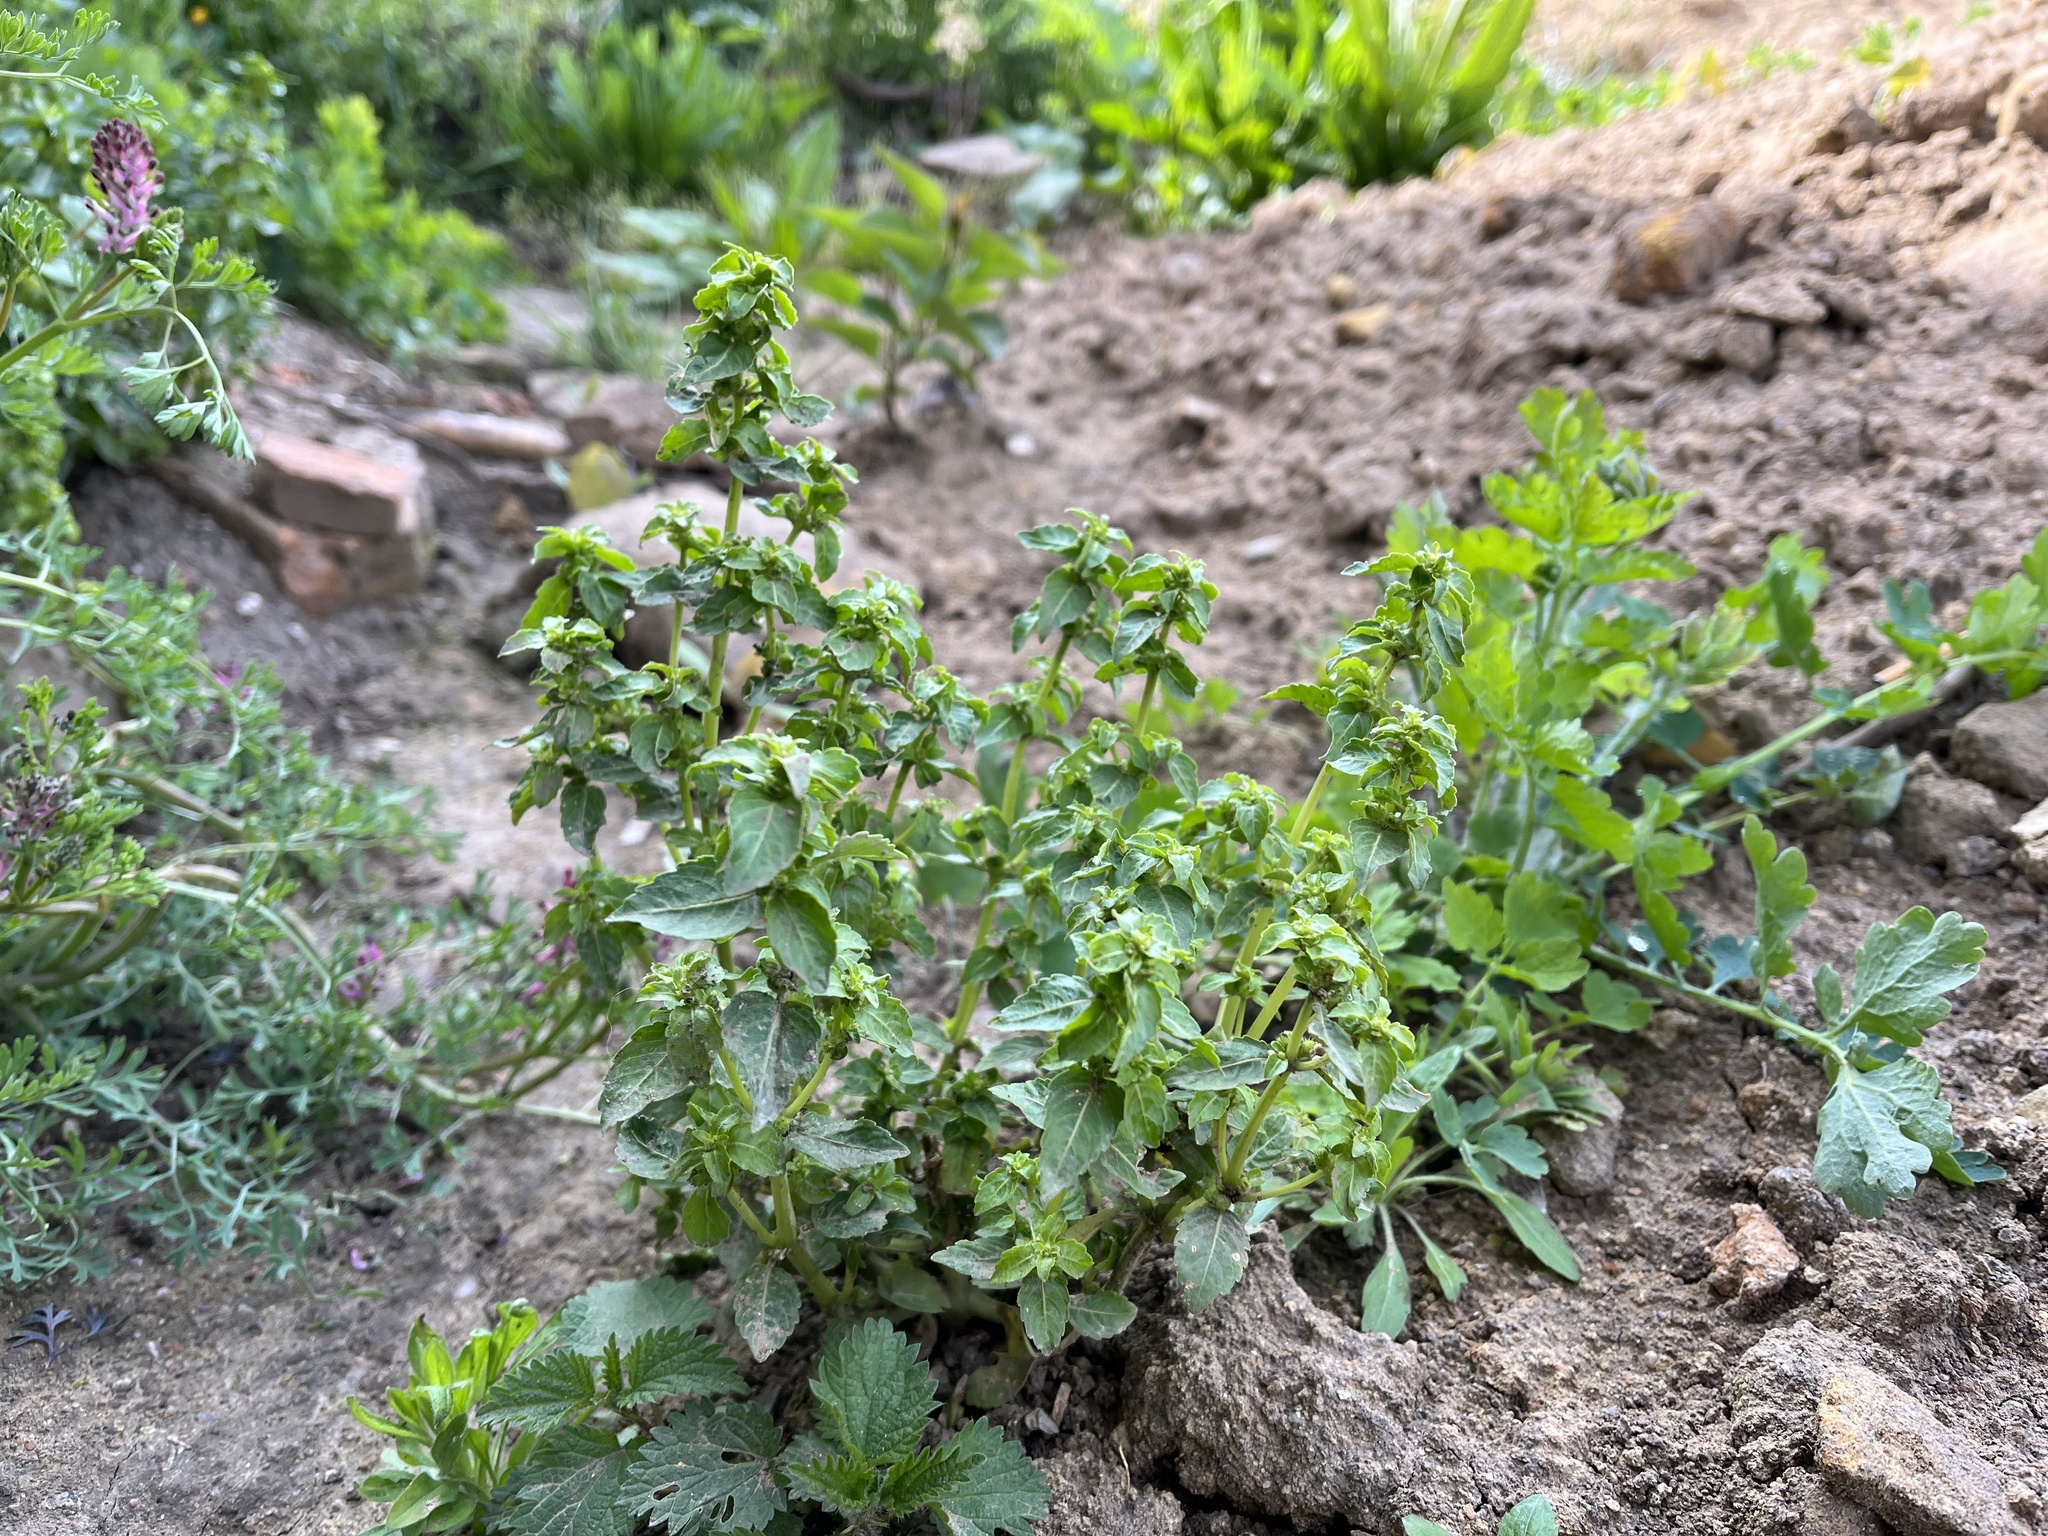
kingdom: Plantae
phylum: Tracheophyta
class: Magnoliopsida
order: Malpighiales
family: Euphorbiaceae
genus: Mercurialis
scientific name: Mercurialis annua
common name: Annual mercury
